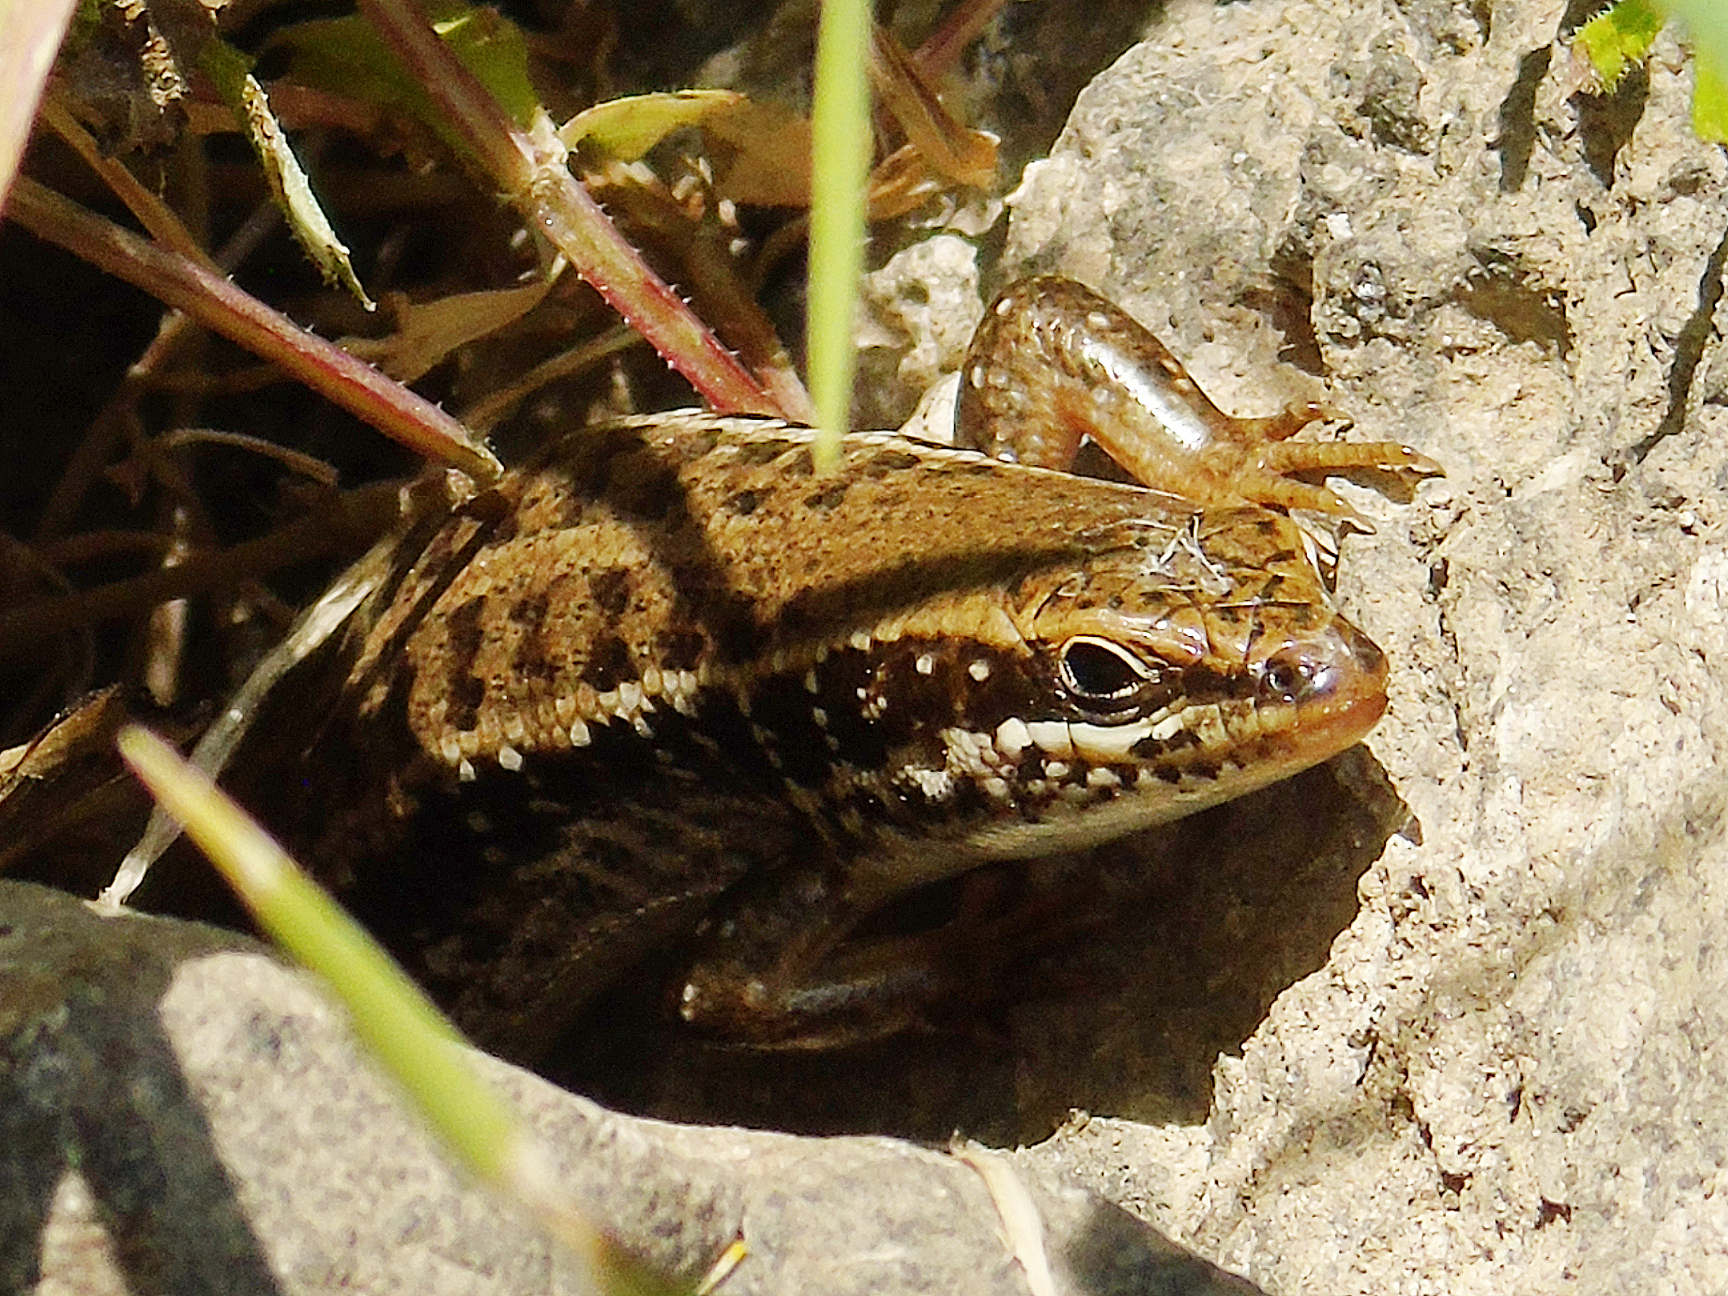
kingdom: Animalia
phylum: Chordata
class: Squamata
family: Scincidae
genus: Heremites
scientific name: Heremites auratus
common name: Golden grass mabuya
